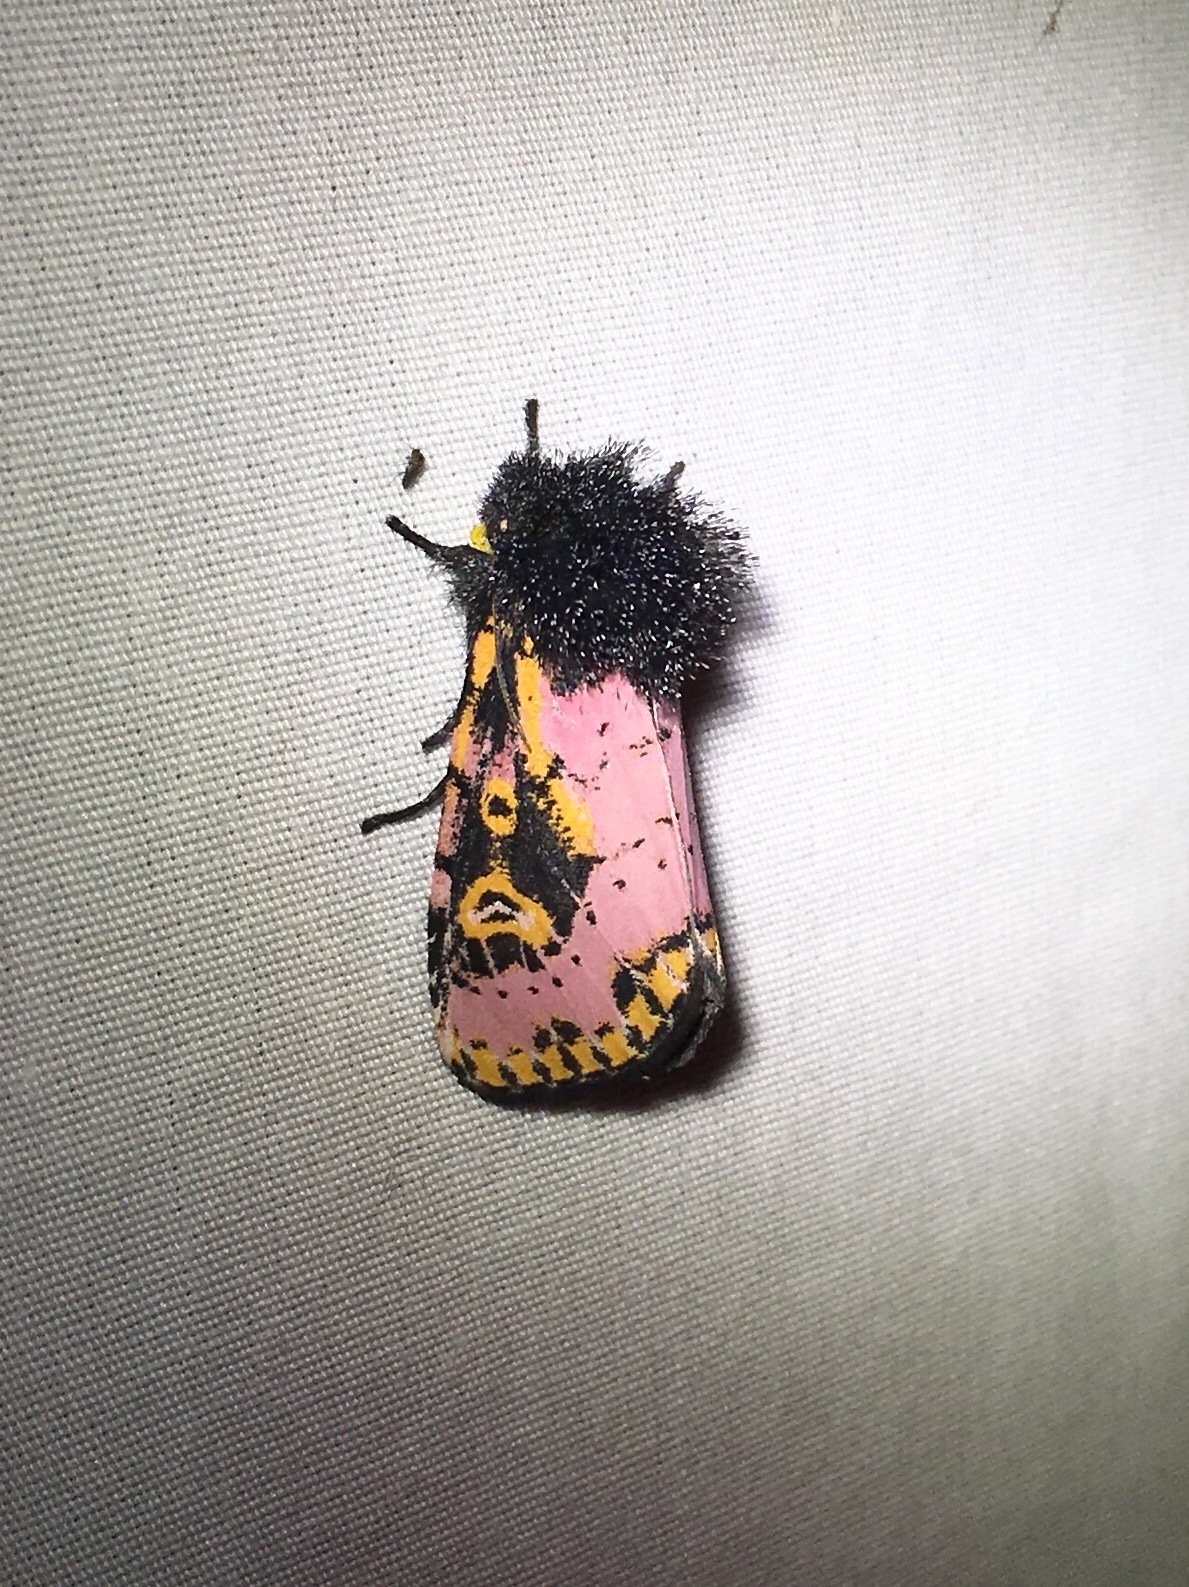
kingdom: Animalia
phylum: Arthropoda
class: Insecta
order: Lepidoptera
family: Noctuidae
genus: Xanthopastis
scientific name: Xanthopastis regnatrix
